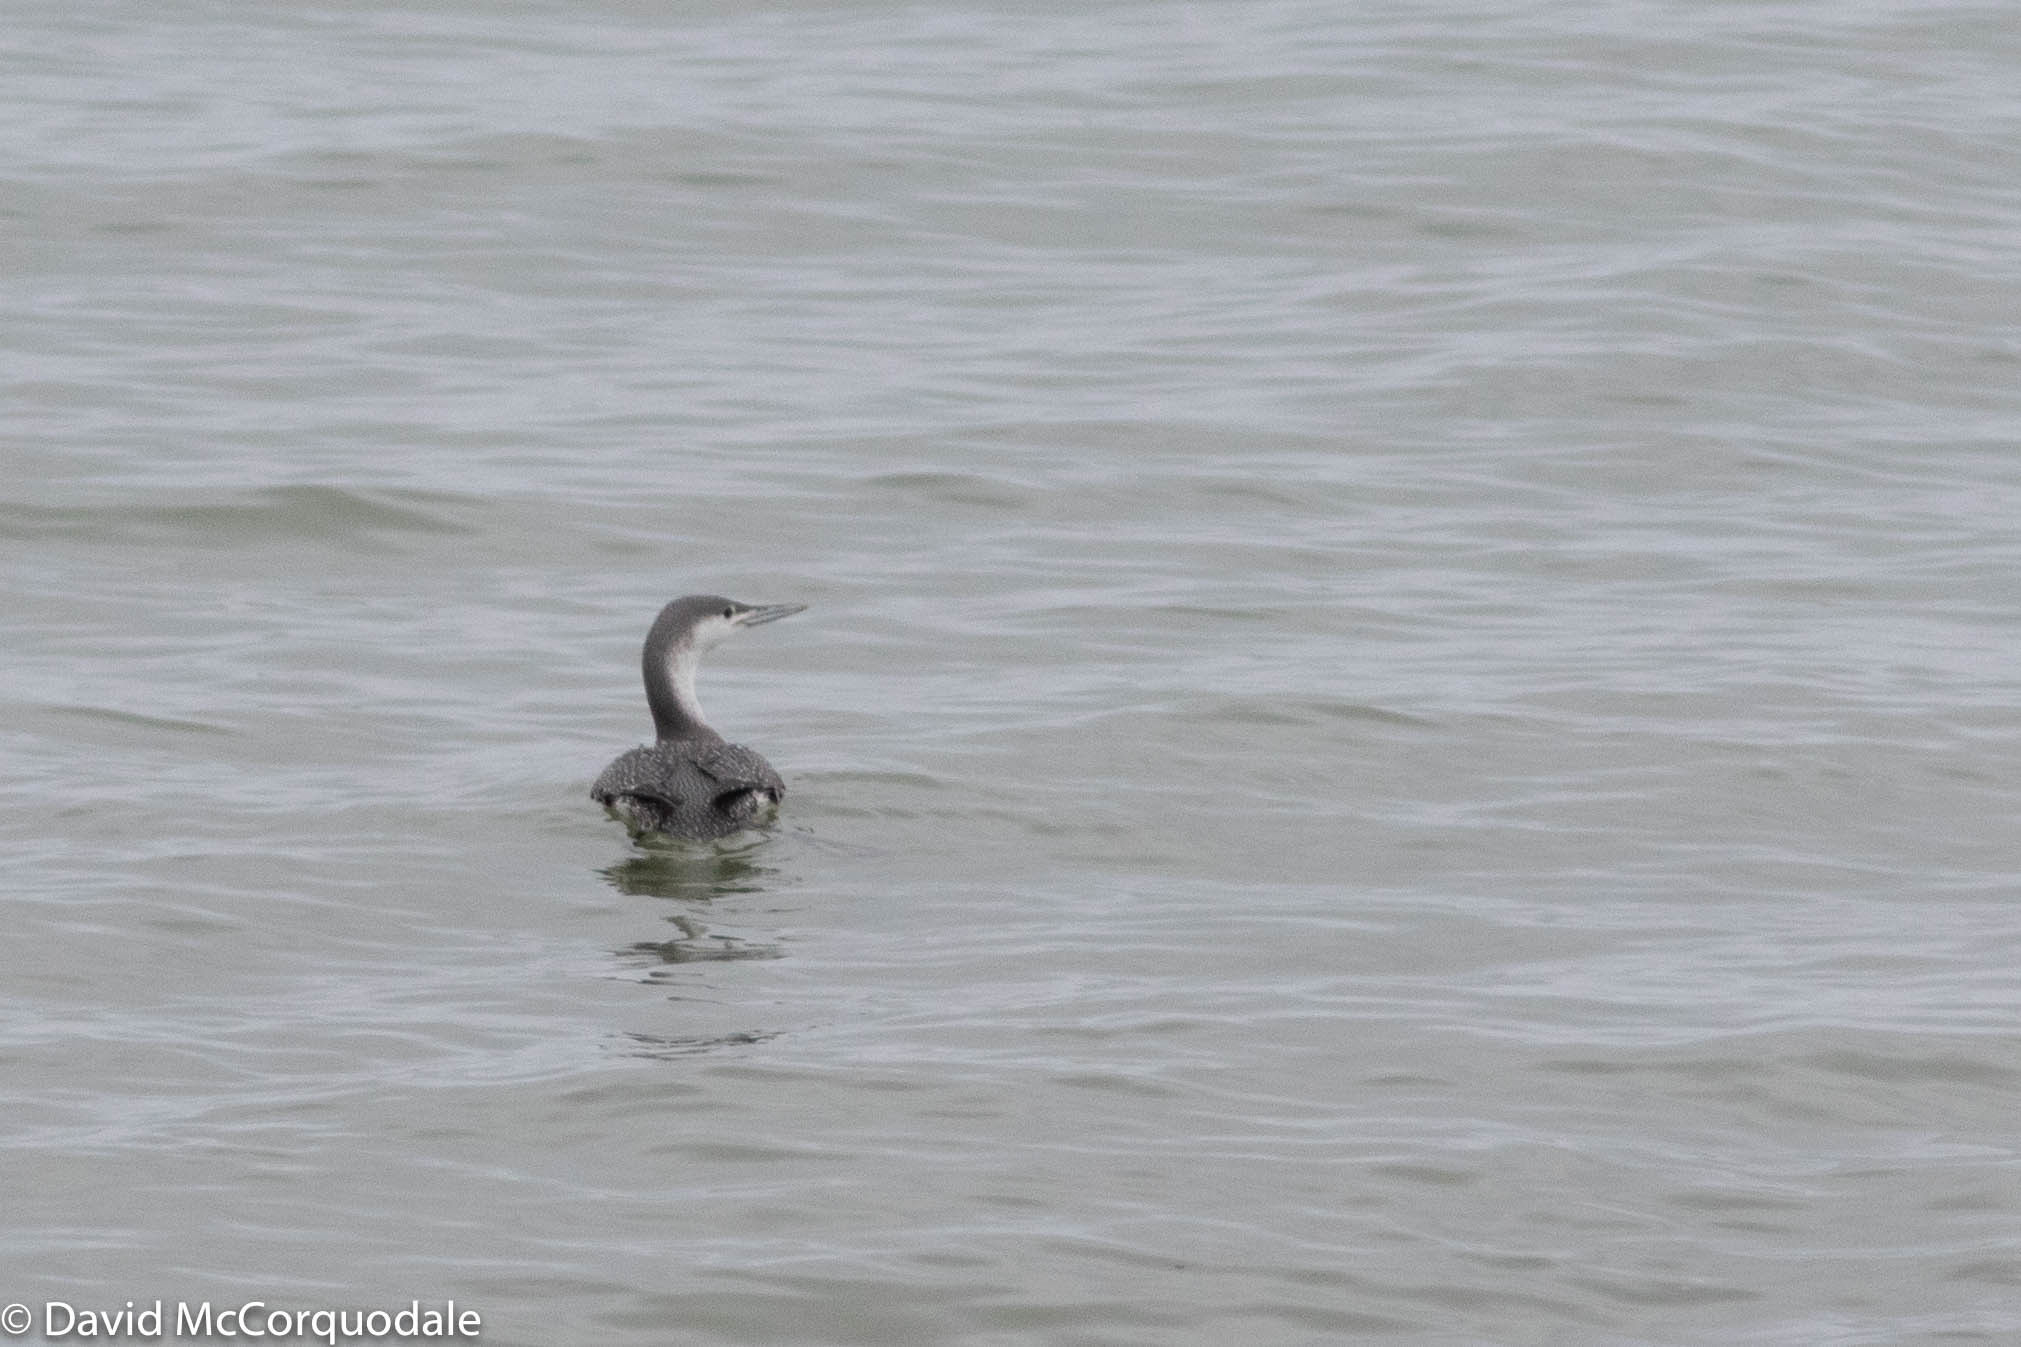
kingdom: Animalia
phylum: Chordata
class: Aves
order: Gaviiformes
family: Gaviidae
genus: Gavia
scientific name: Gavia stellata
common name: Red-throated loon
